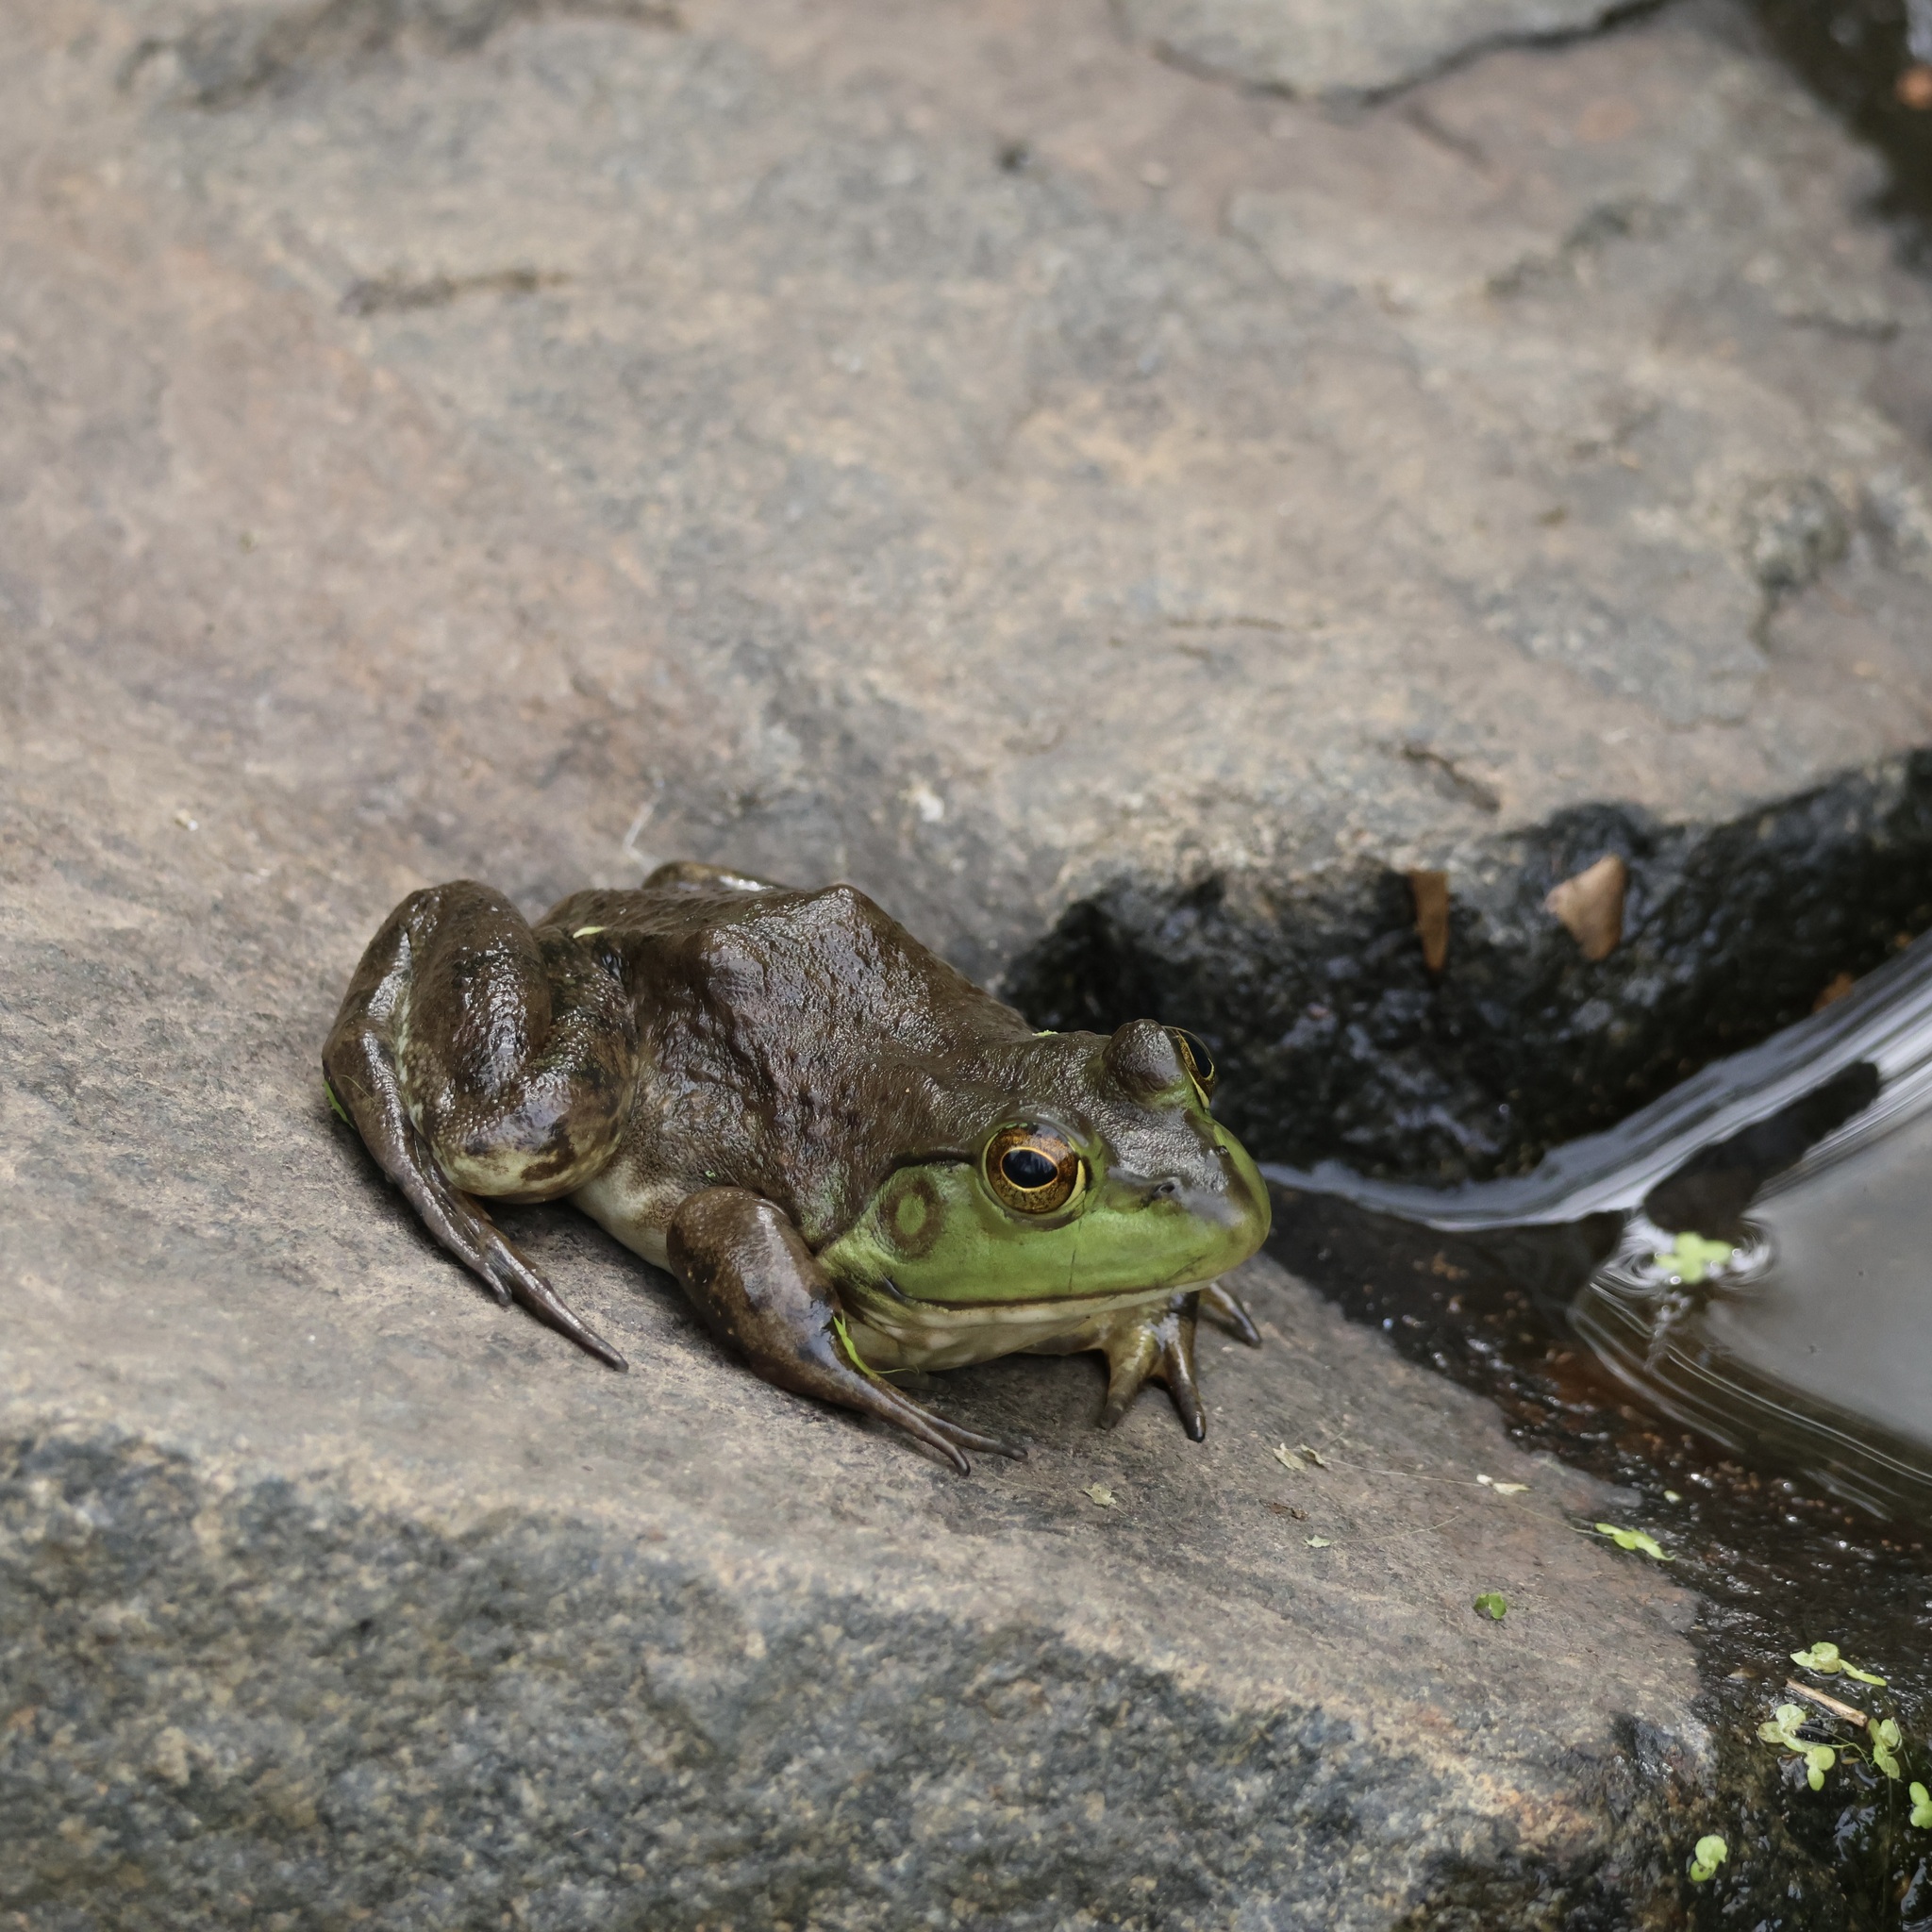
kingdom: Animalia
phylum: Chordata
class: Amphibia
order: Anura
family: Ranidae
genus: Lithobates
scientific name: Lithobates catesbeianus
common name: American bullfrog
